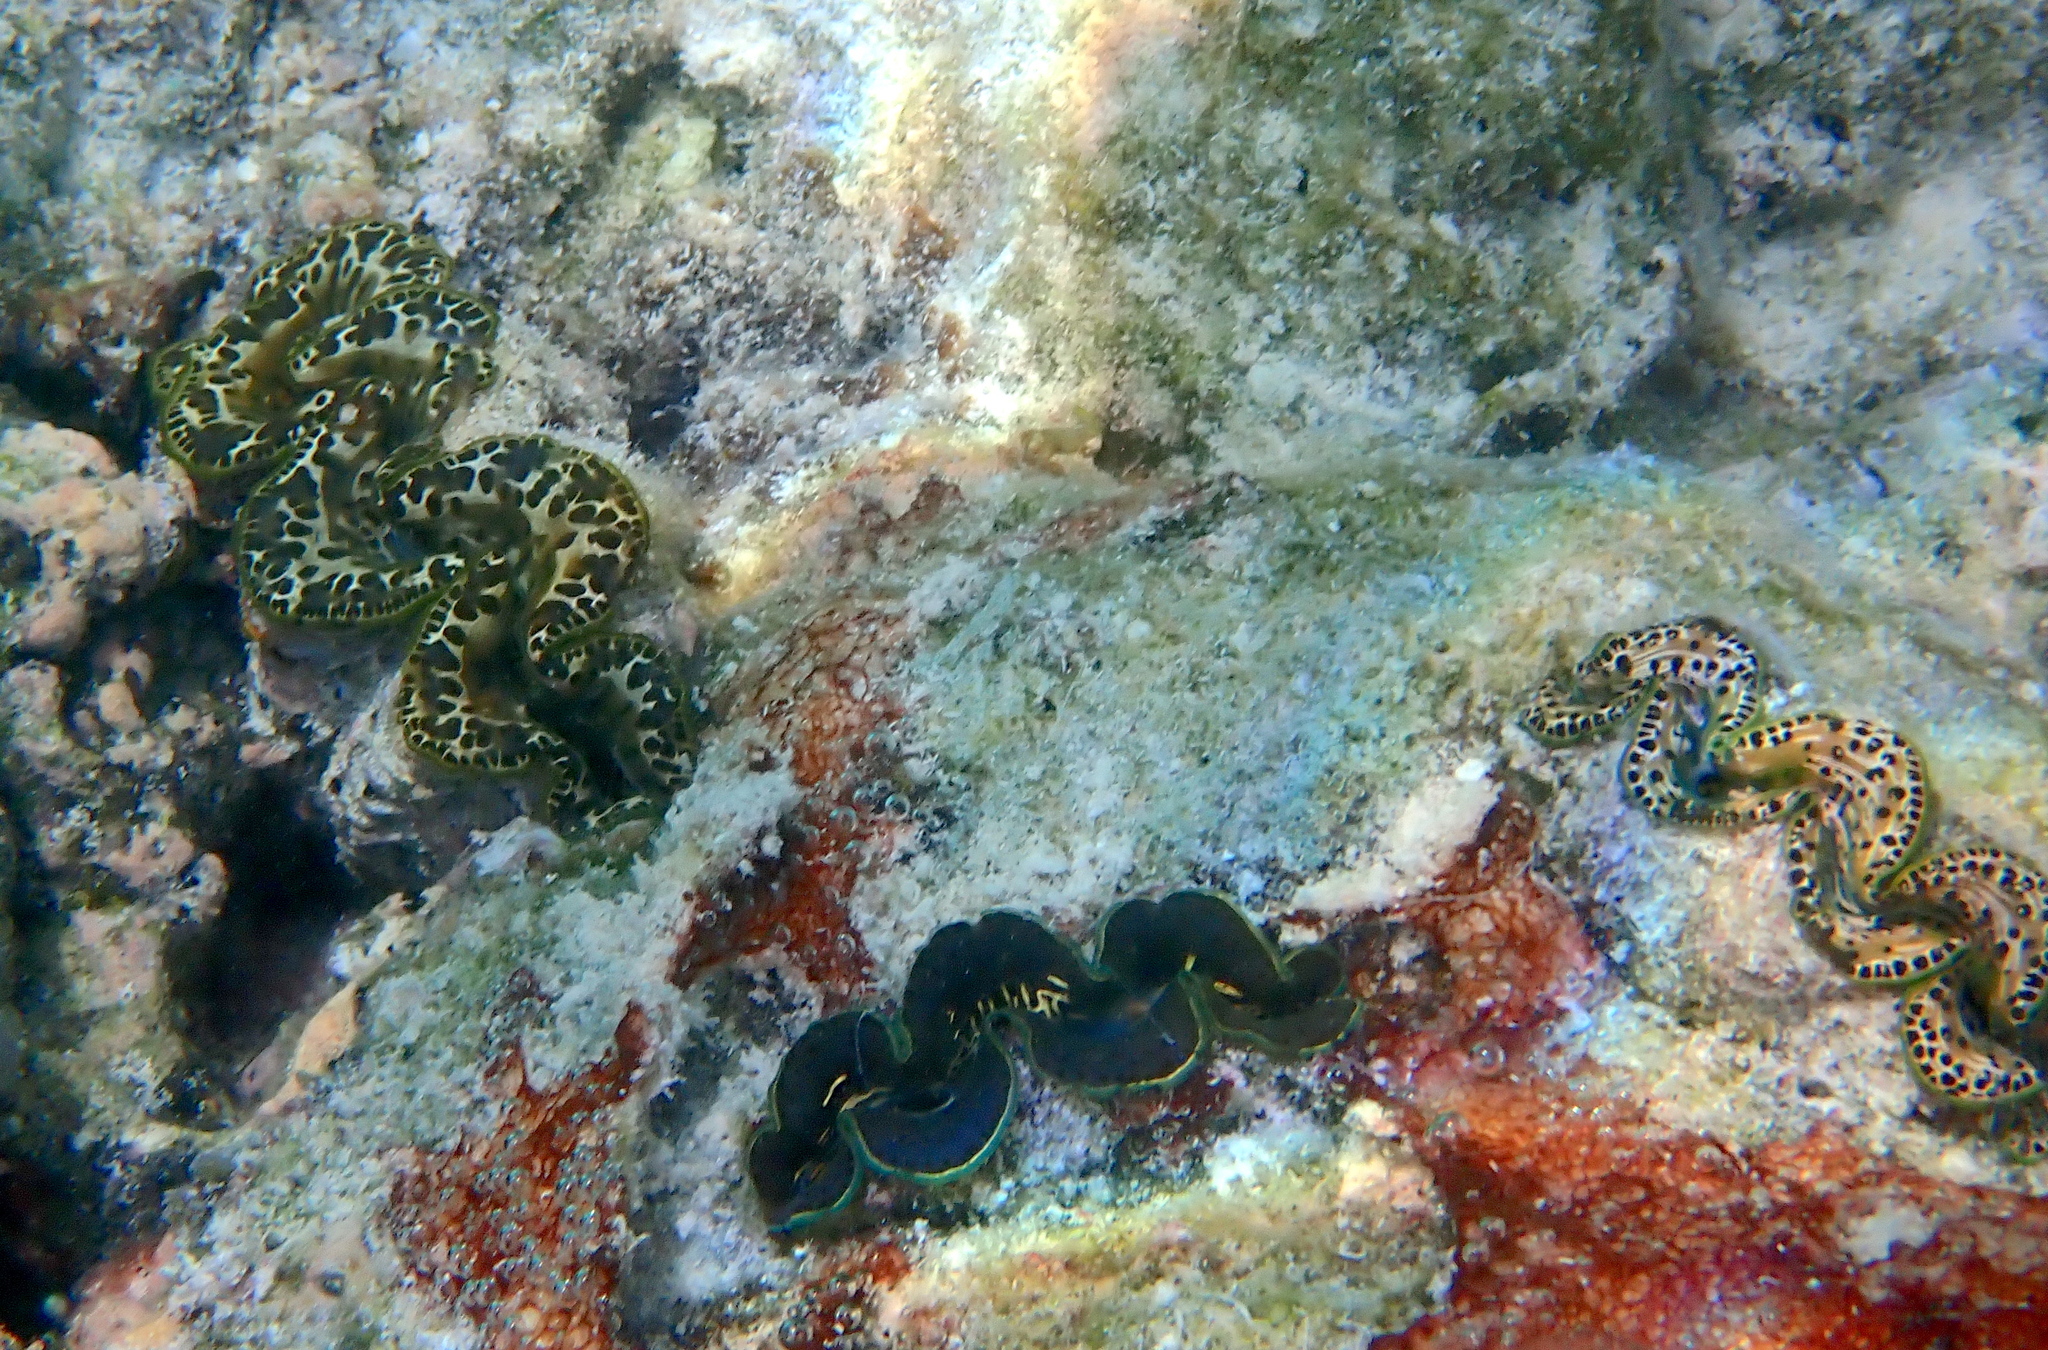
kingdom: Animalia
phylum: Mollusca
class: Bivalvia
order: Cardiida
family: Cardiidae
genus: Tridacna
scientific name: Tridacna maxima
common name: Small giant clam
